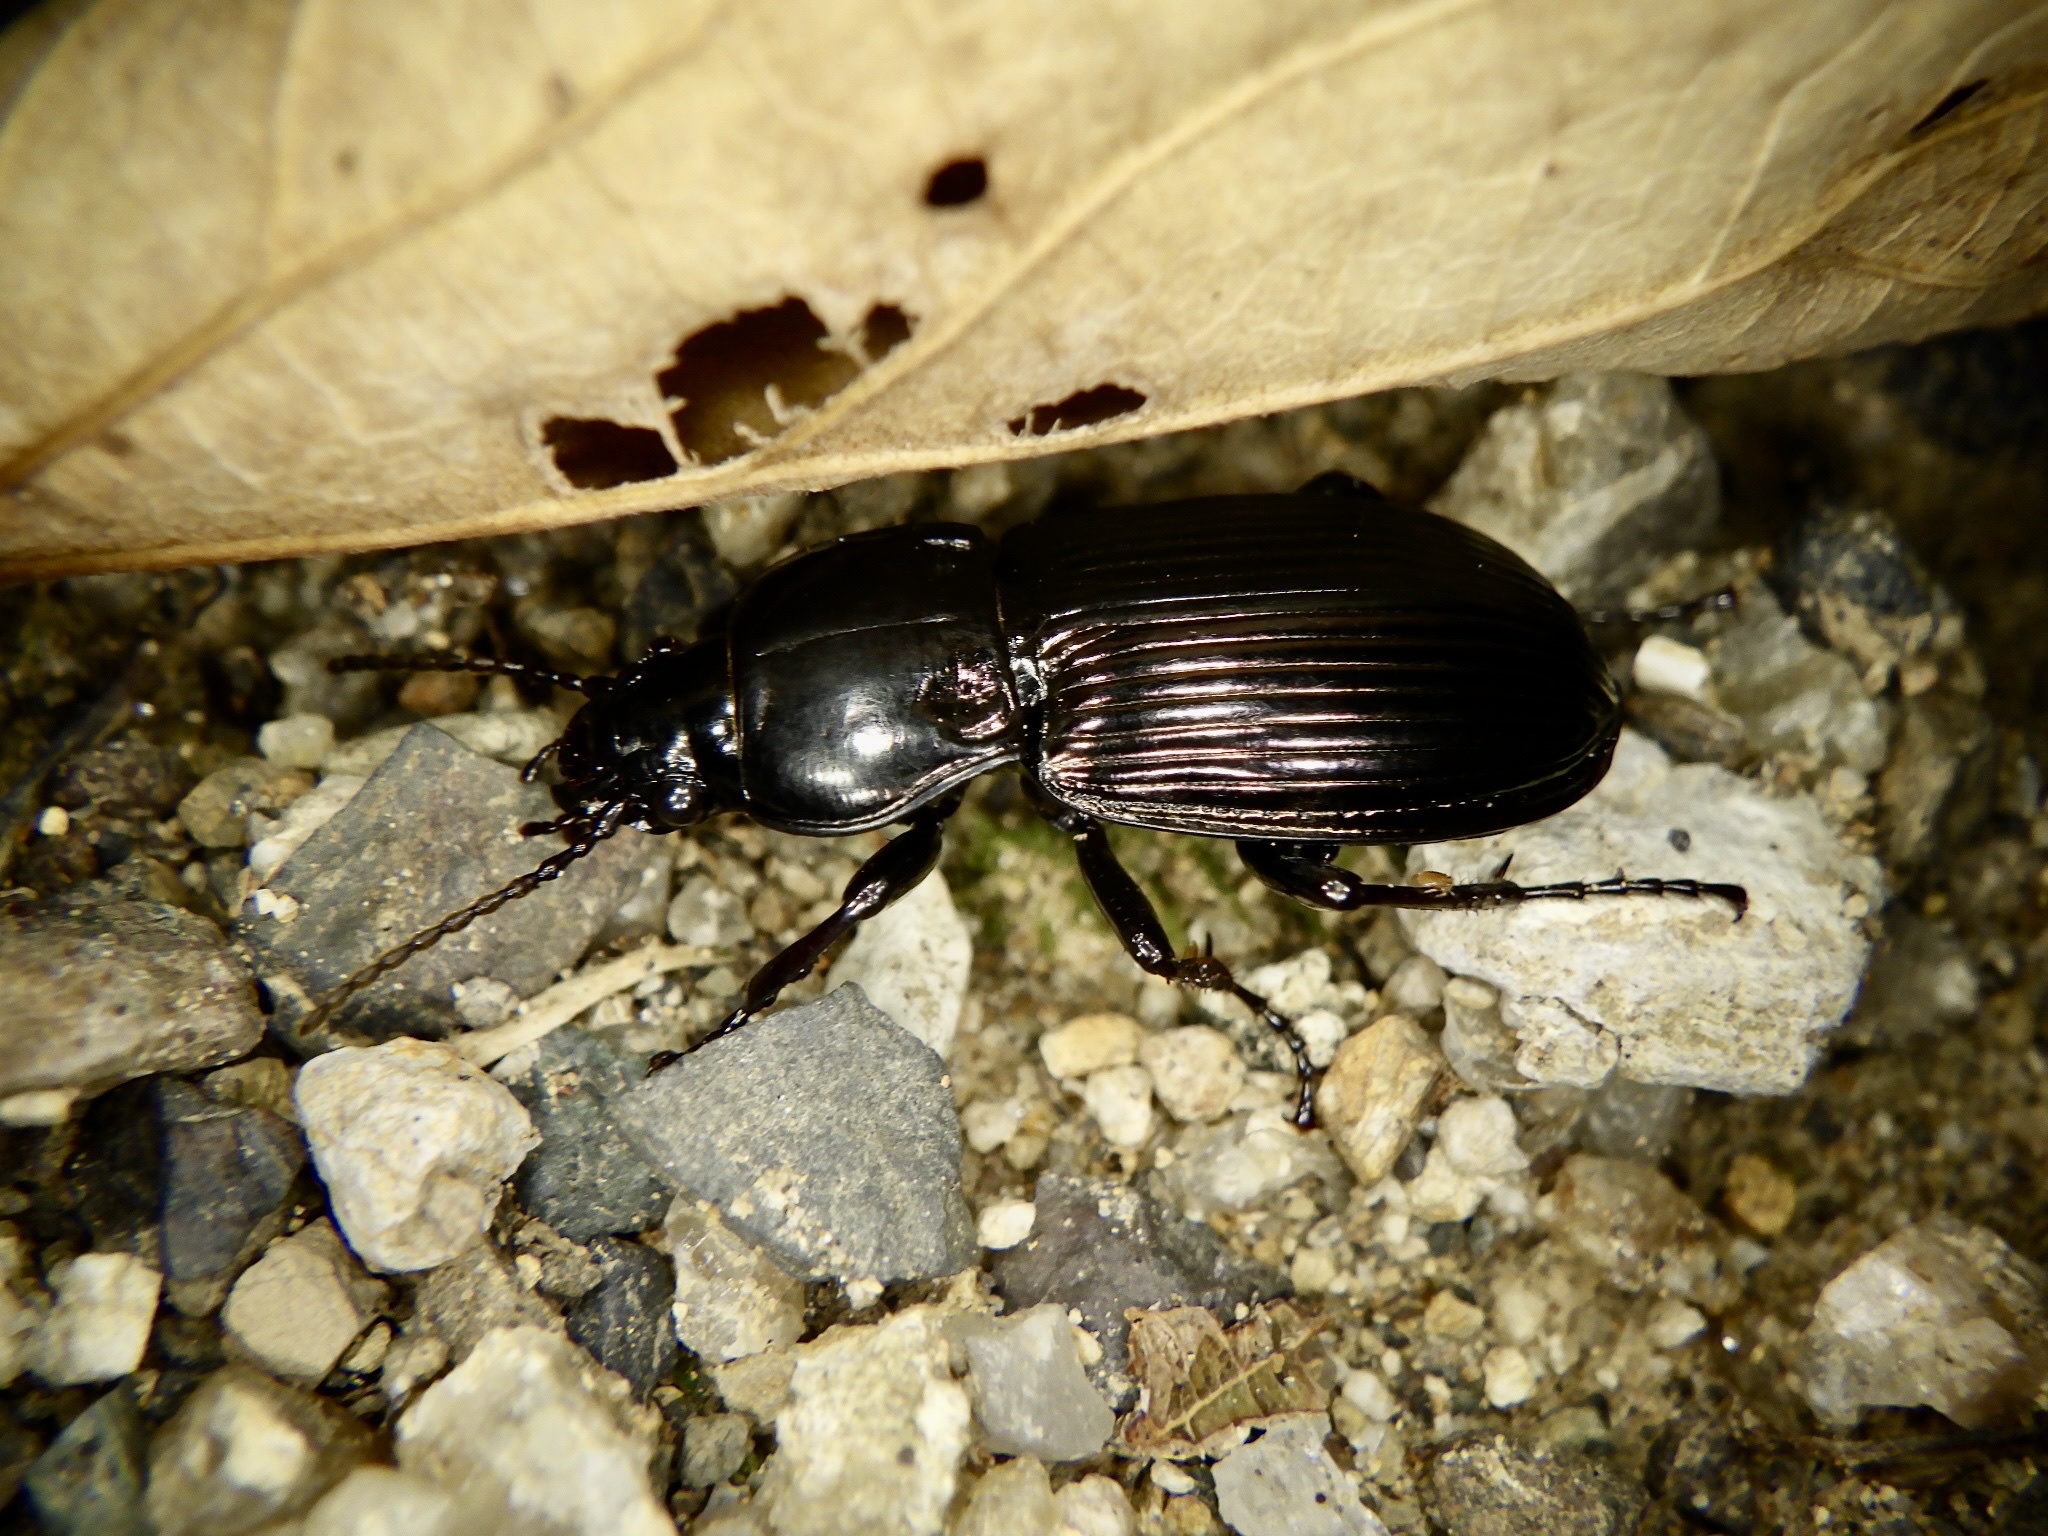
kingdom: Animalia
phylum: Arthropoda
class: Insecta
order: Coleoptera
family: Carabidae
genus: Myas
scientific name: Myas cuprescens
